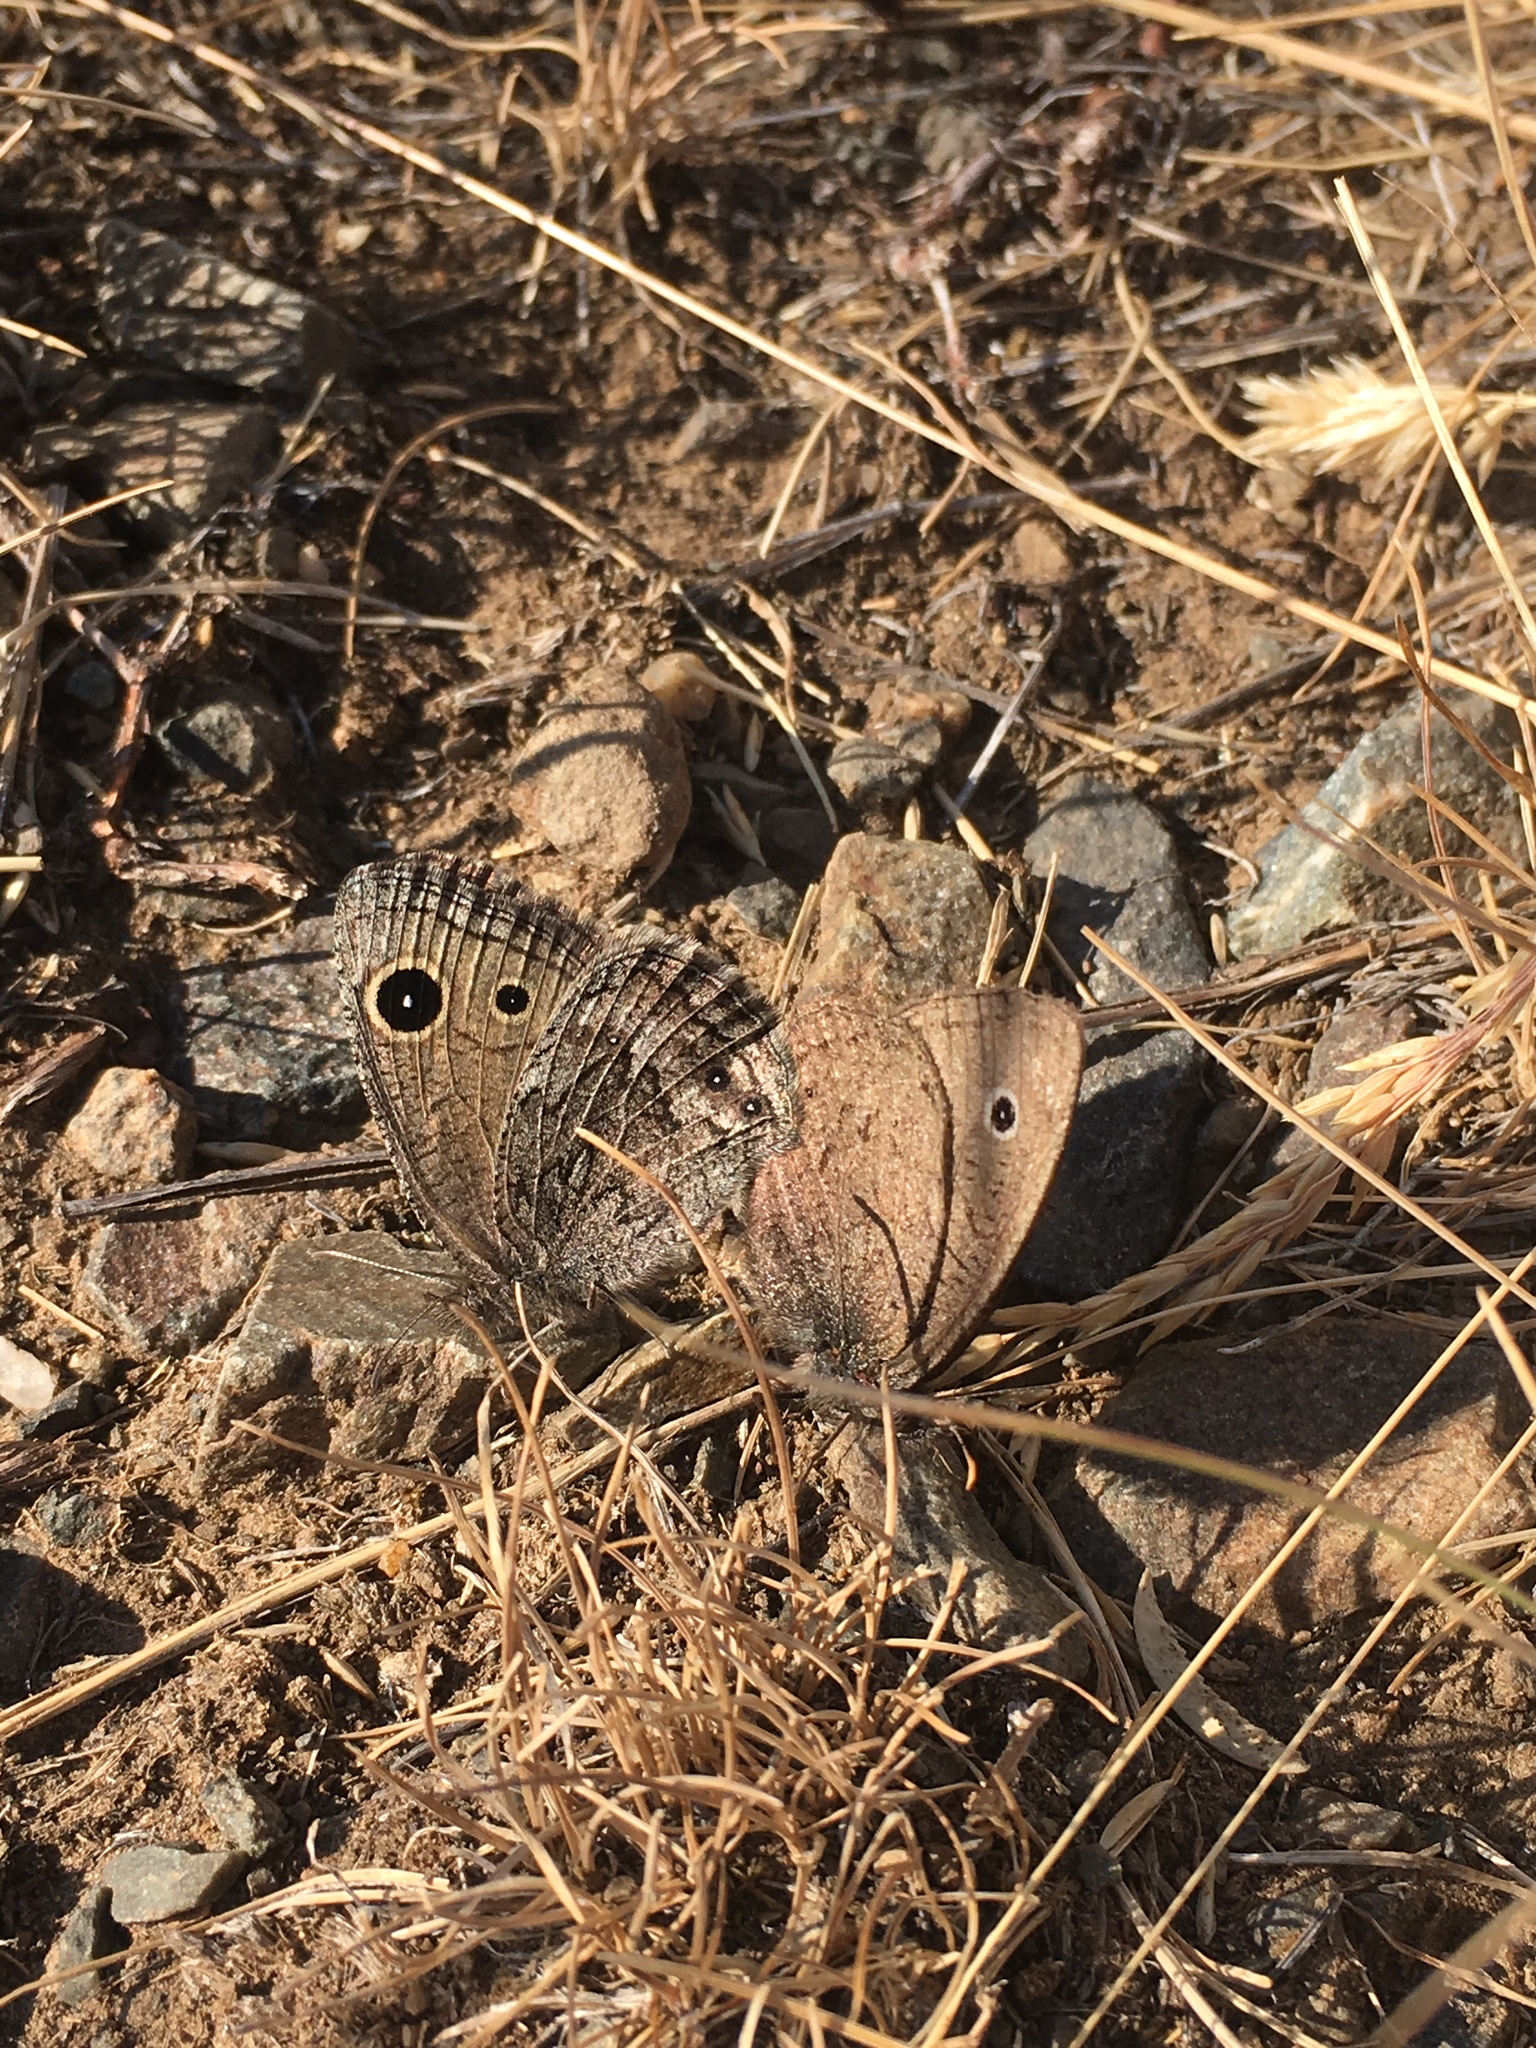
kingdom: Animalia
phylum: Arthropoda
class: Insecta
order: Lepidoptera
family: Nymphalidae
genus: Cercyonis
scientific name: Cercyonis oetus
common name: Small wood-nymph
